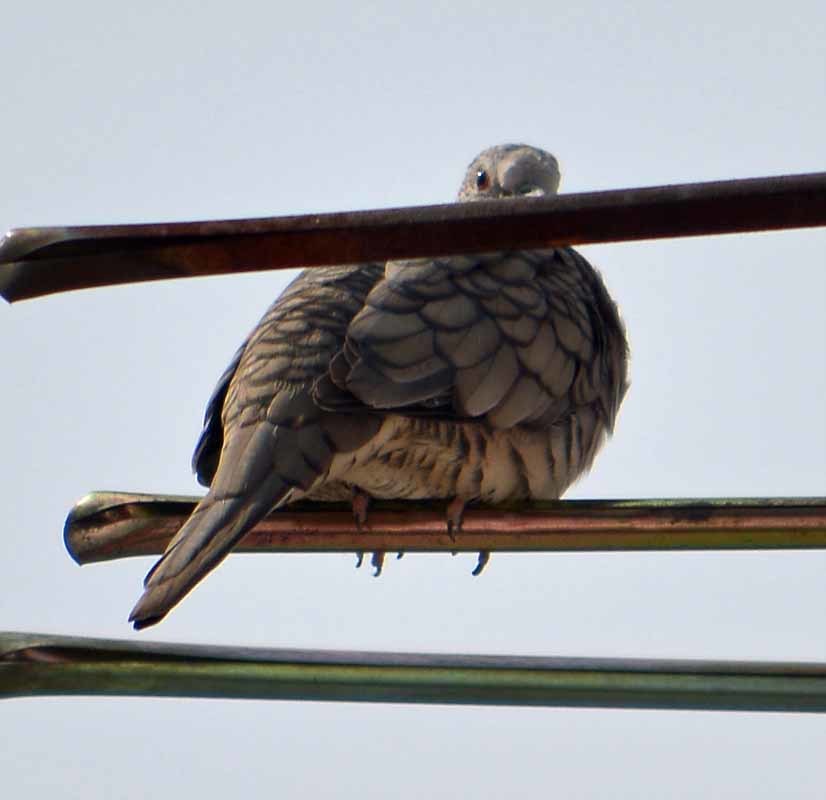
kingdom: Animalia
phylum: Chordata
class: Aves
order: Columbiformes
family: Columbidae
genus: Columbina
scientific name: Columbina inca
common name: Inca dove
